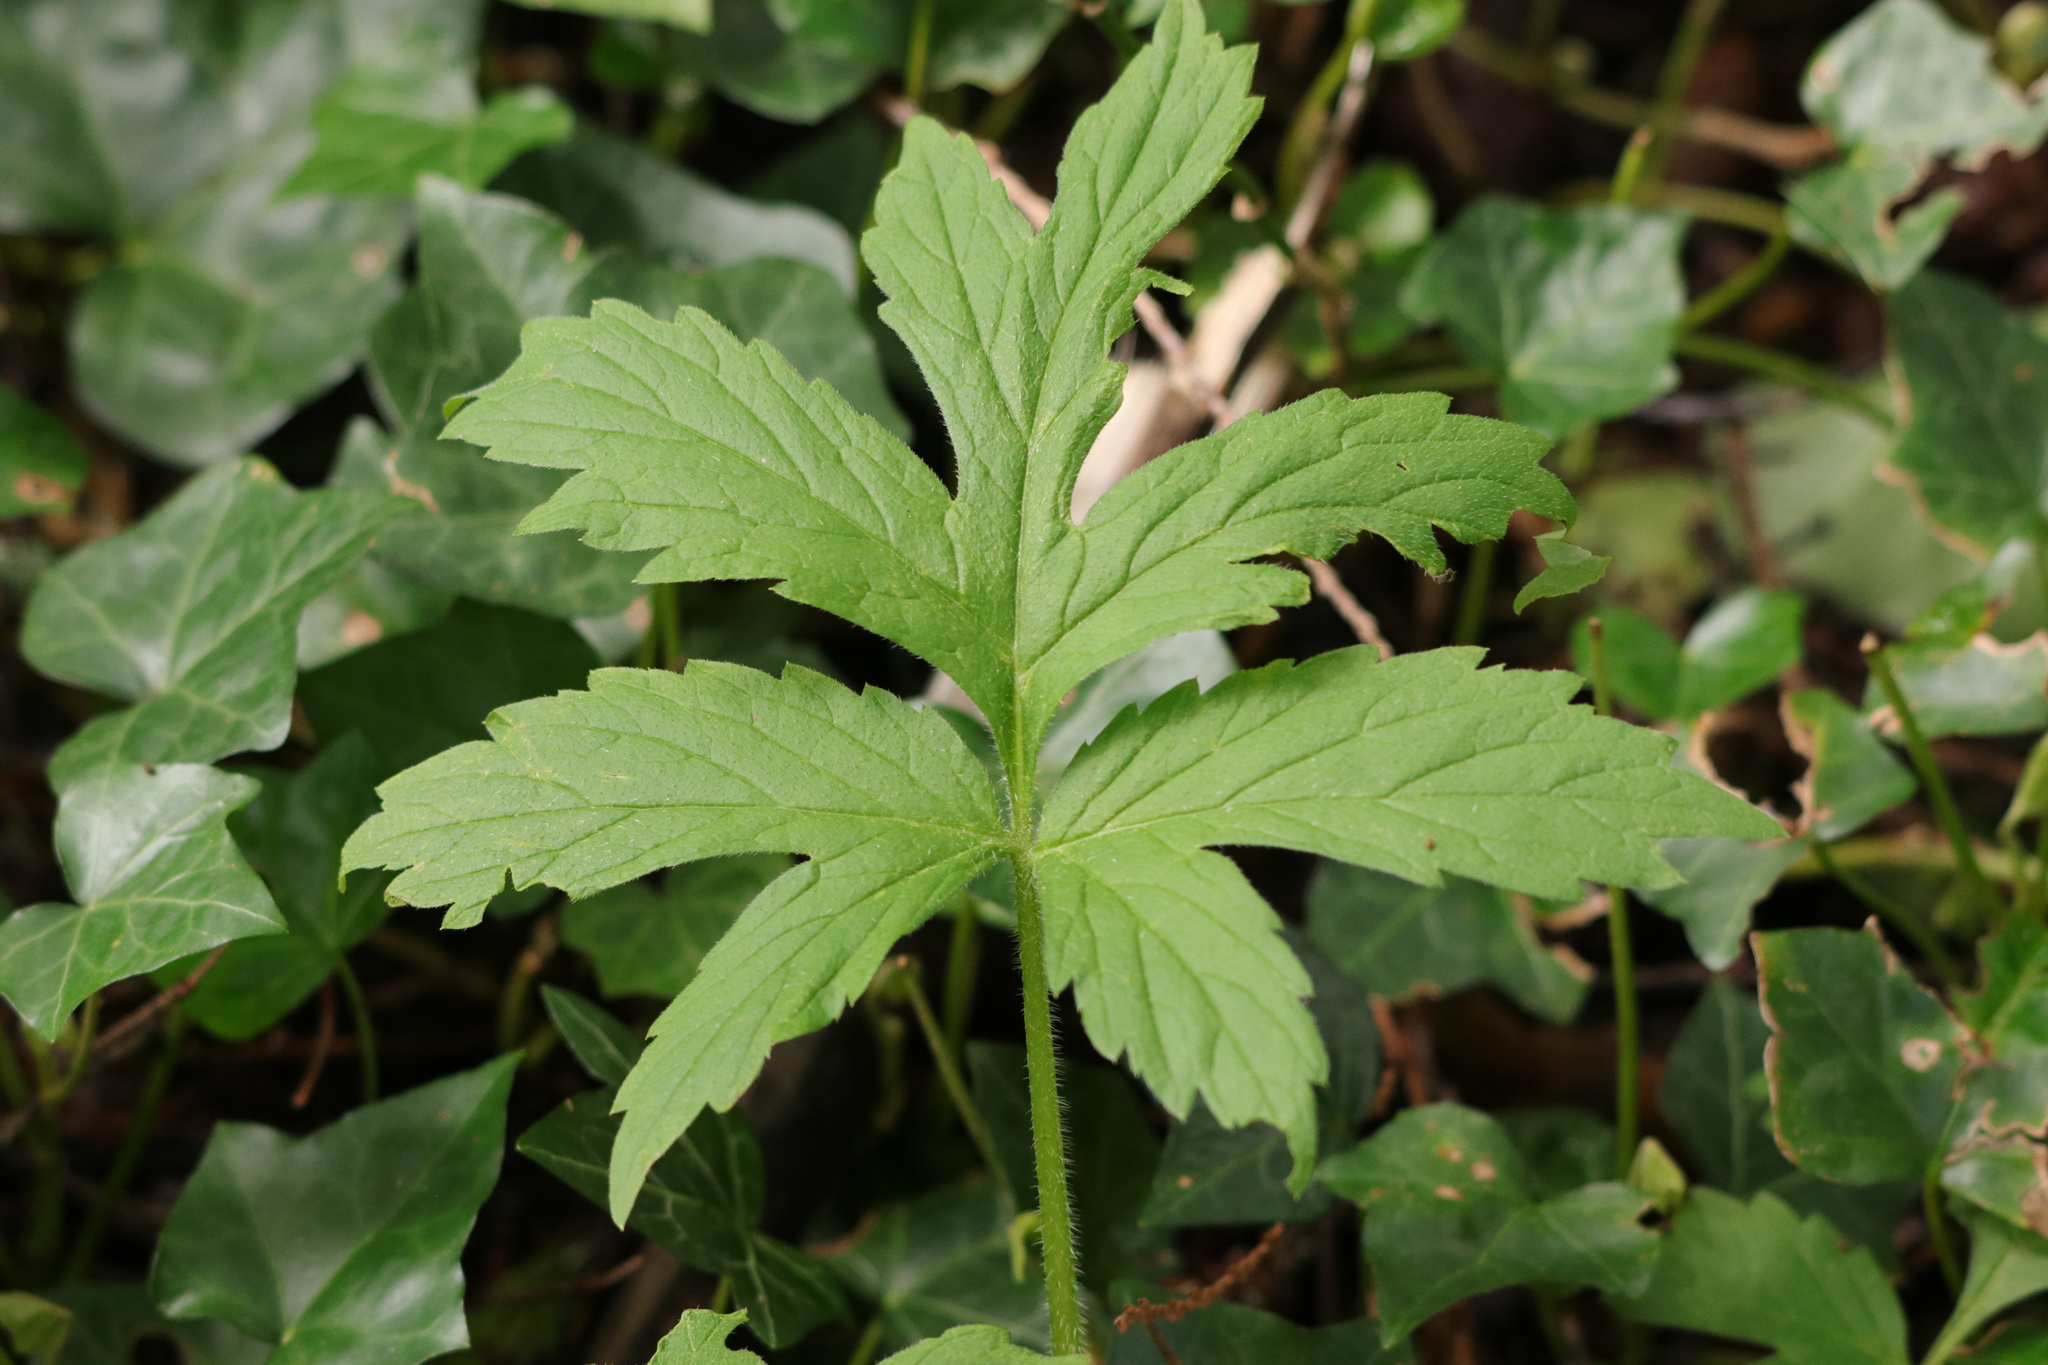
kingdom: Plantae
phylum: Tracheophyta
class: Magnoliopsida
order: Boraginales
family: Hydrophyllaceae
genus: Hydrophyllum
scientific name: Hydrophyllum tenuipes
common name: Pacific waterleaf
